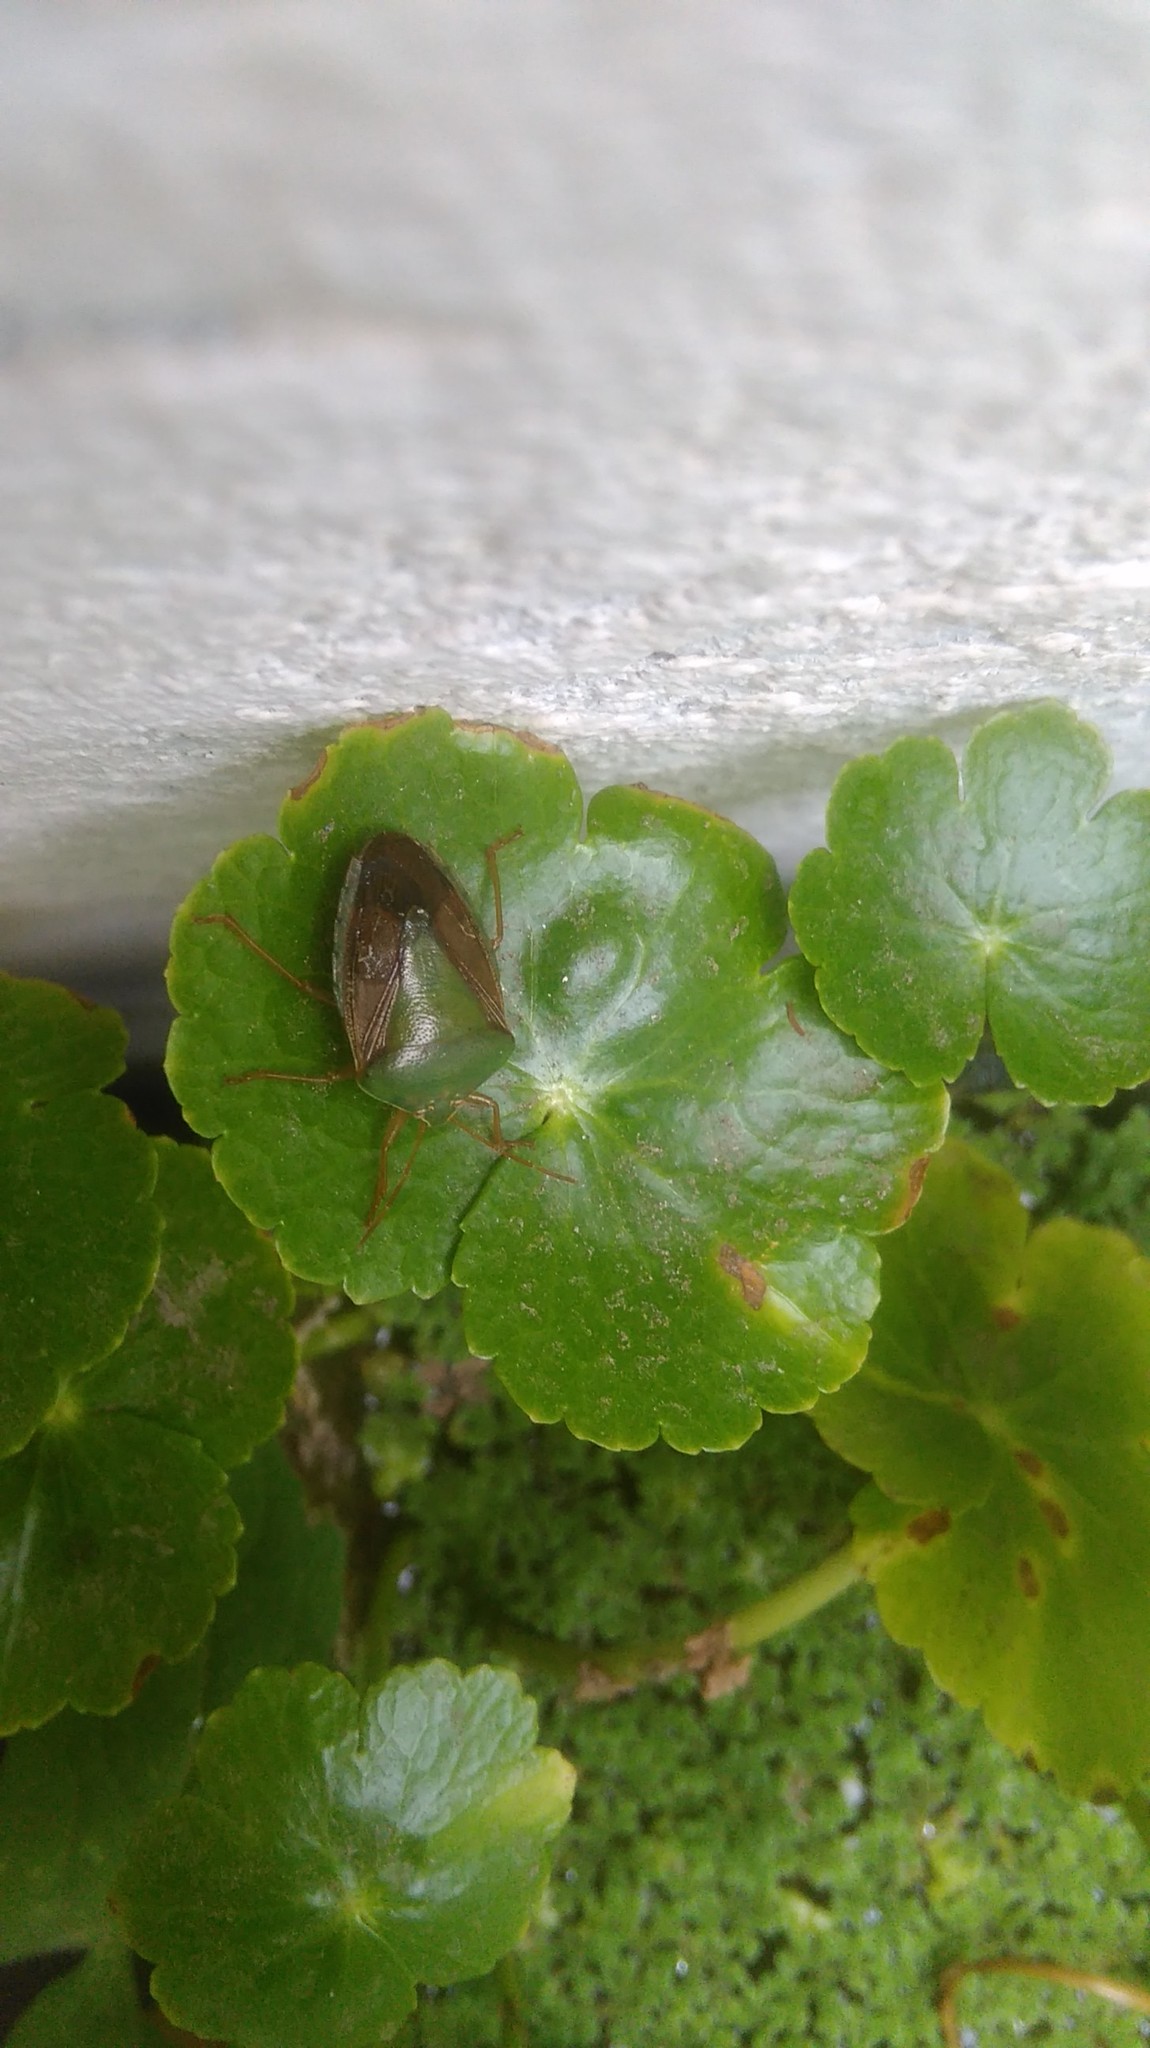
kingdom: Animalia
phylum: Arthropoda
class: Insecta
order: Hemiptera
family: Pentatomidae
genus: Edessa
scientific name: Edessa meditabunda
